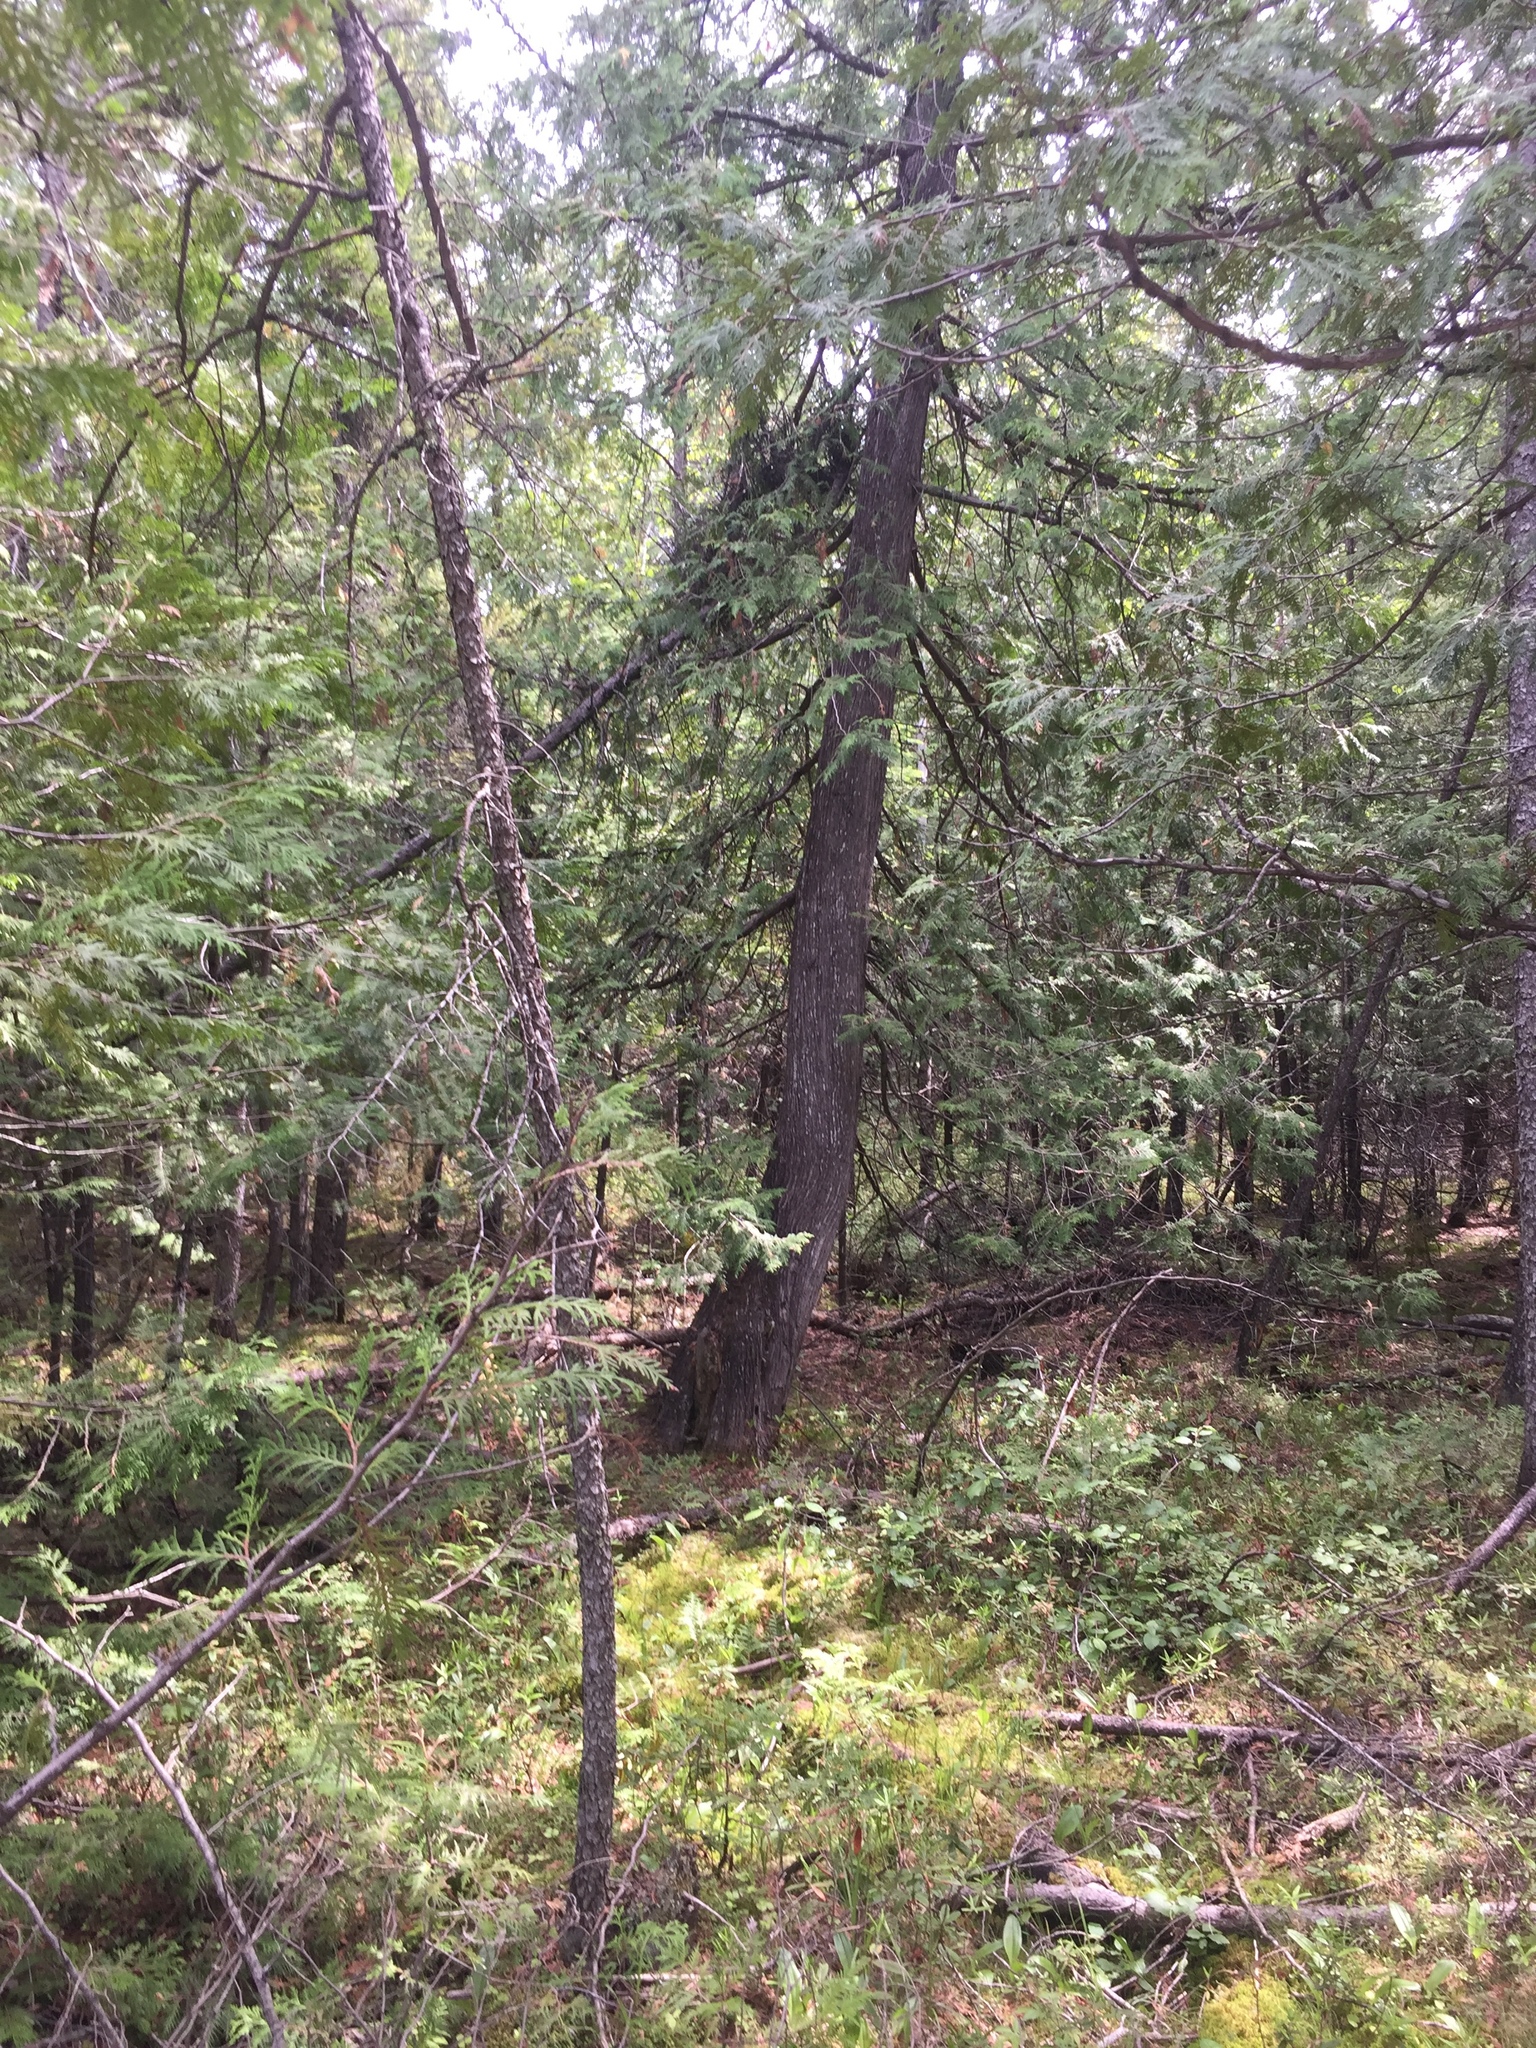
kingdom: Plantae
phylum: Tracheophyta
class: Pinopsida
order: Pinales
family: Cupressaceae
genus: Thuja
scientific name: Thuja occidentalis
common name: Northern white-cedar
